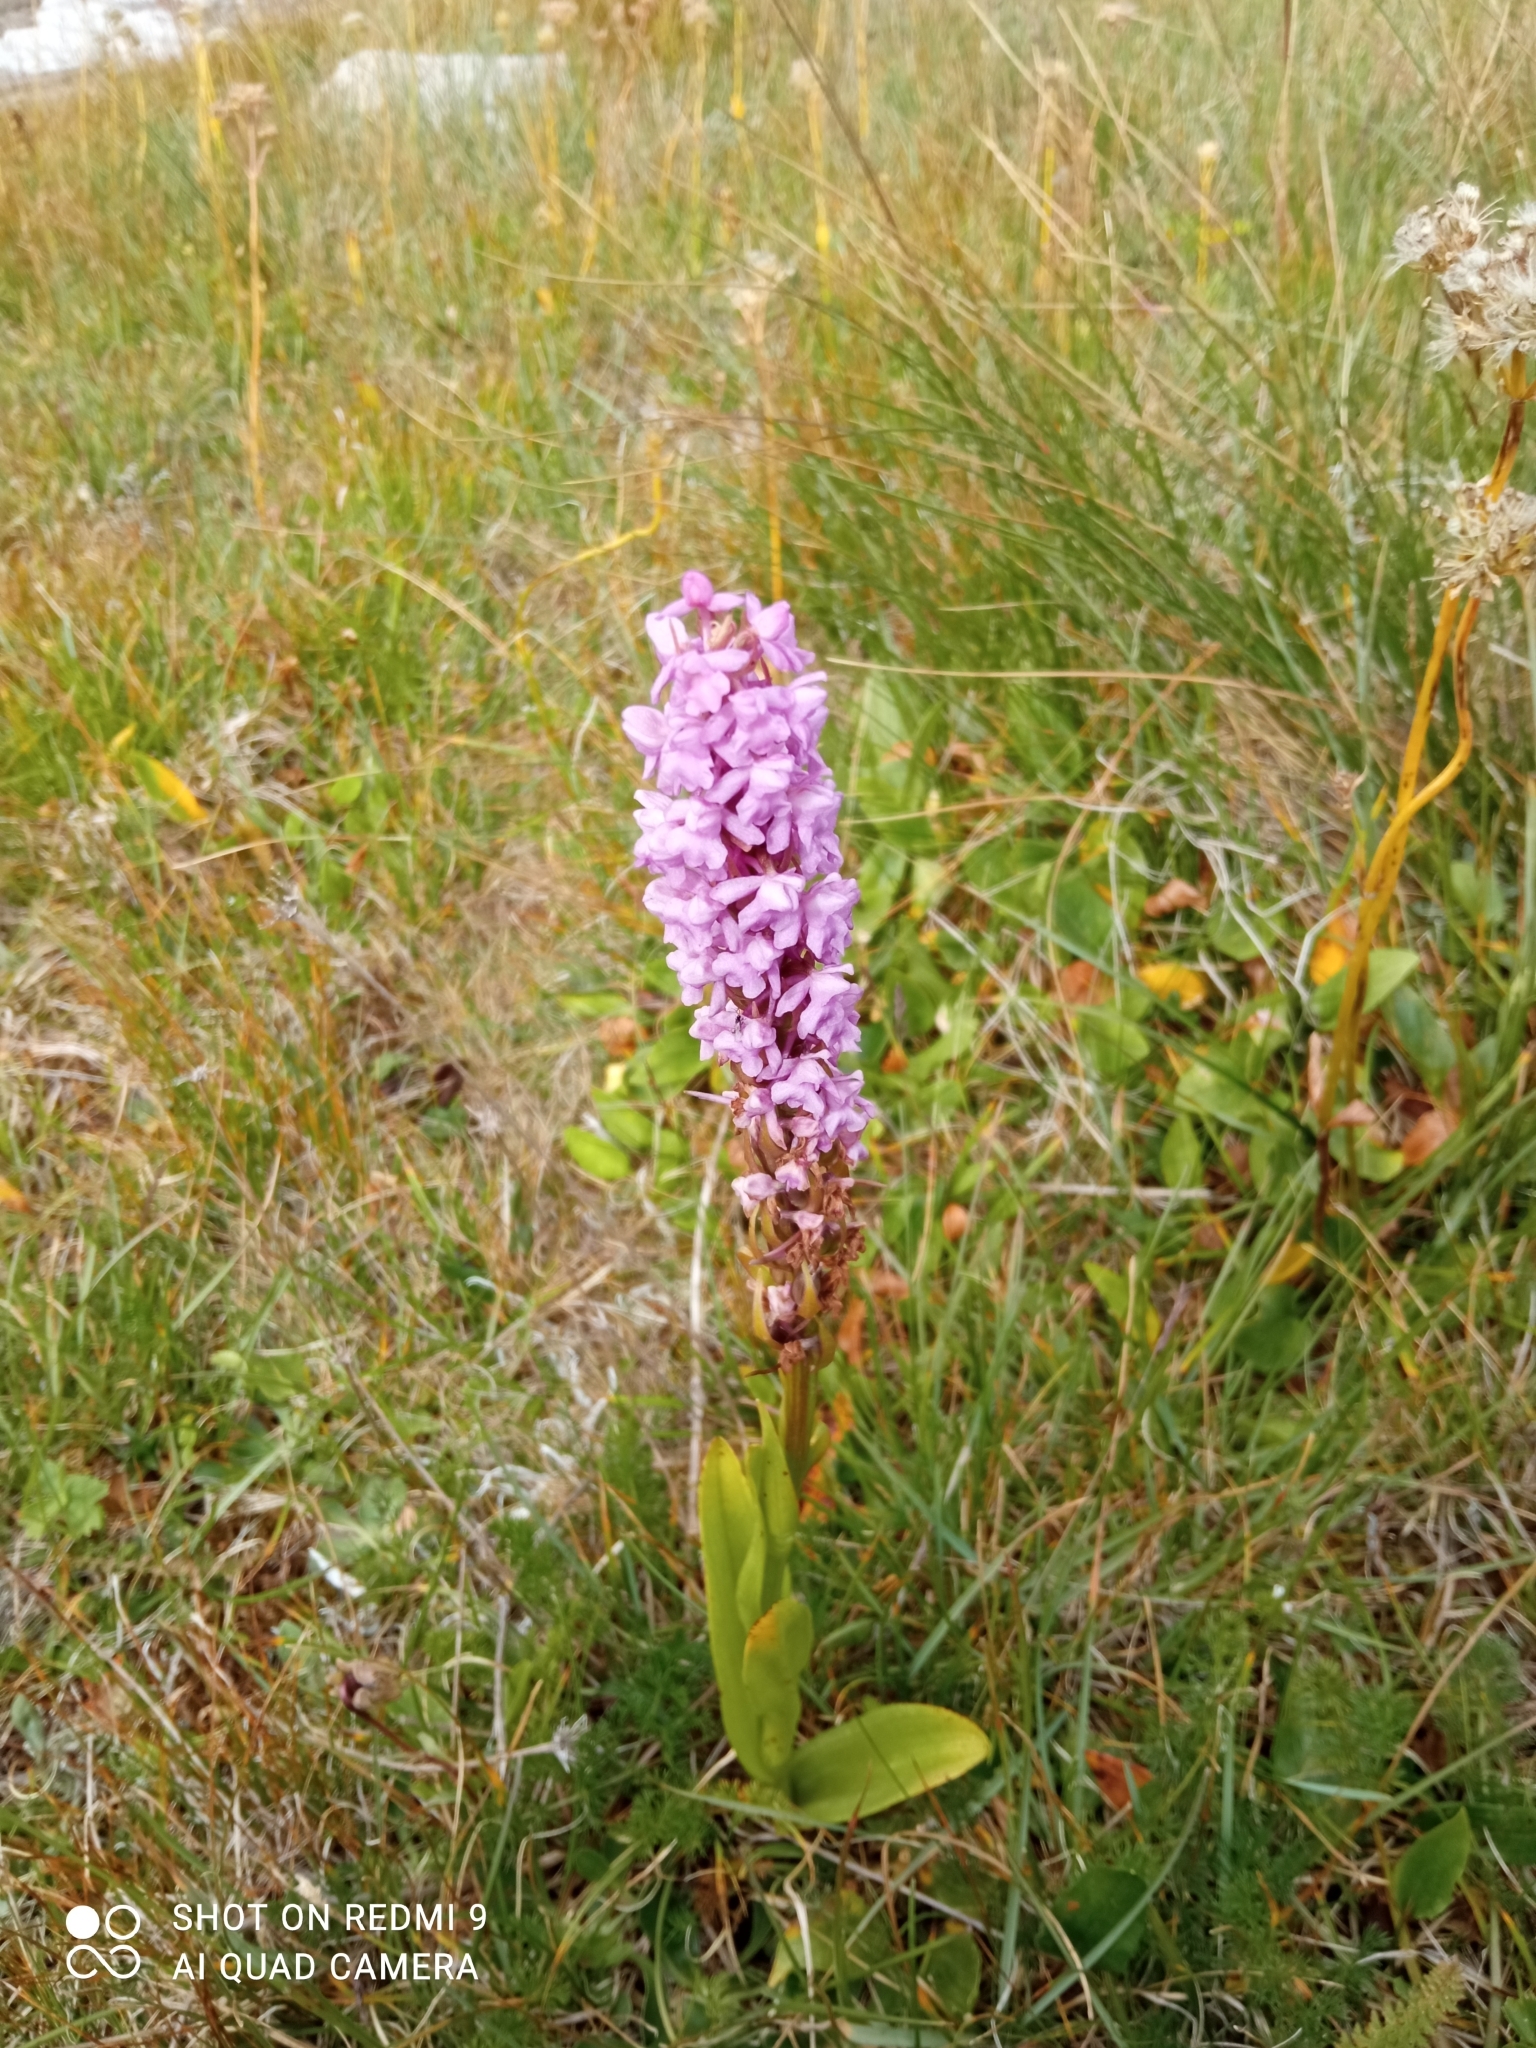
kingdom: Plantae
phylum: Tracheophyta
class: Liliopsida
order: Asparagales
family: Orchidaceae
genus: Gymnadenia
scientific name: Gymnadenia conopsea
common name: Fragrant orchid
